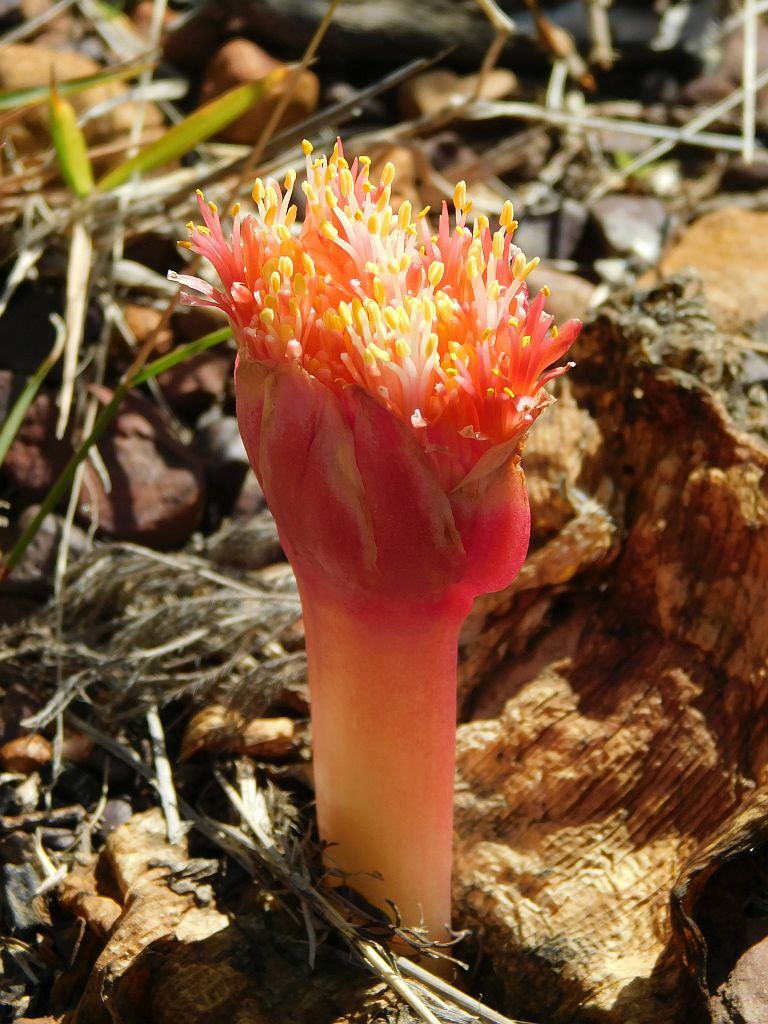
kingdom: Plantae
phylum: Tracheophyta
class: Liliopsida
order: Asparagales
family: Amaryllidaceae
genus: Haemanthus
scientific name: Haemanthus sanguineus
